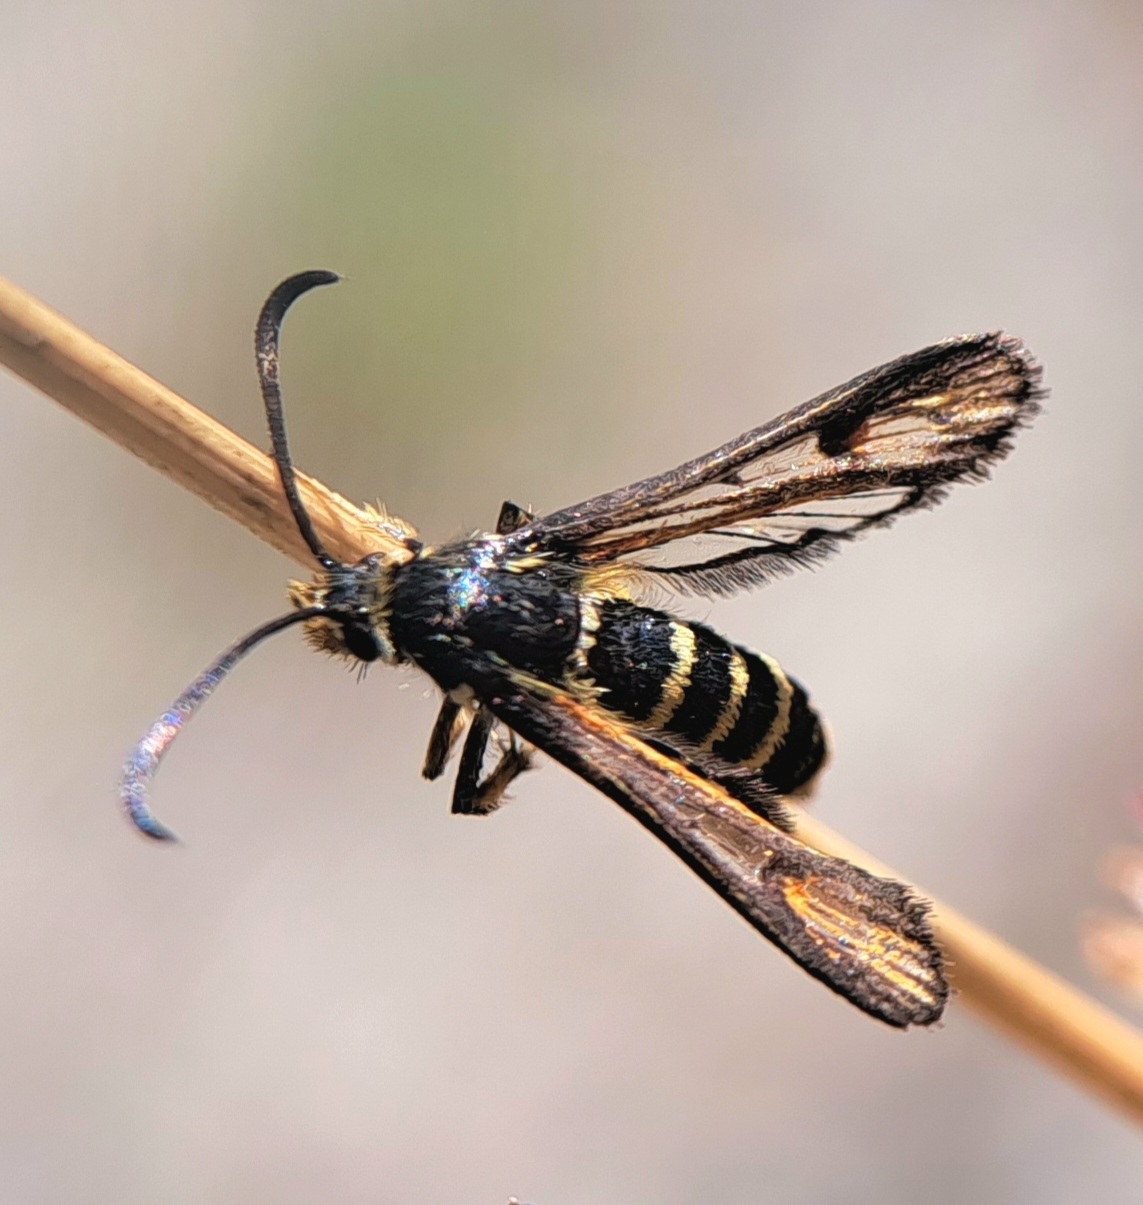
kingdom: Animalia
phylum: Arthropoda
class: Insecta
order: Lepidoptera
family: Sesiidae
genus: Bembecia
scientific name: Bembecia ichneumoniformis
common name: Six-belted clearwing
